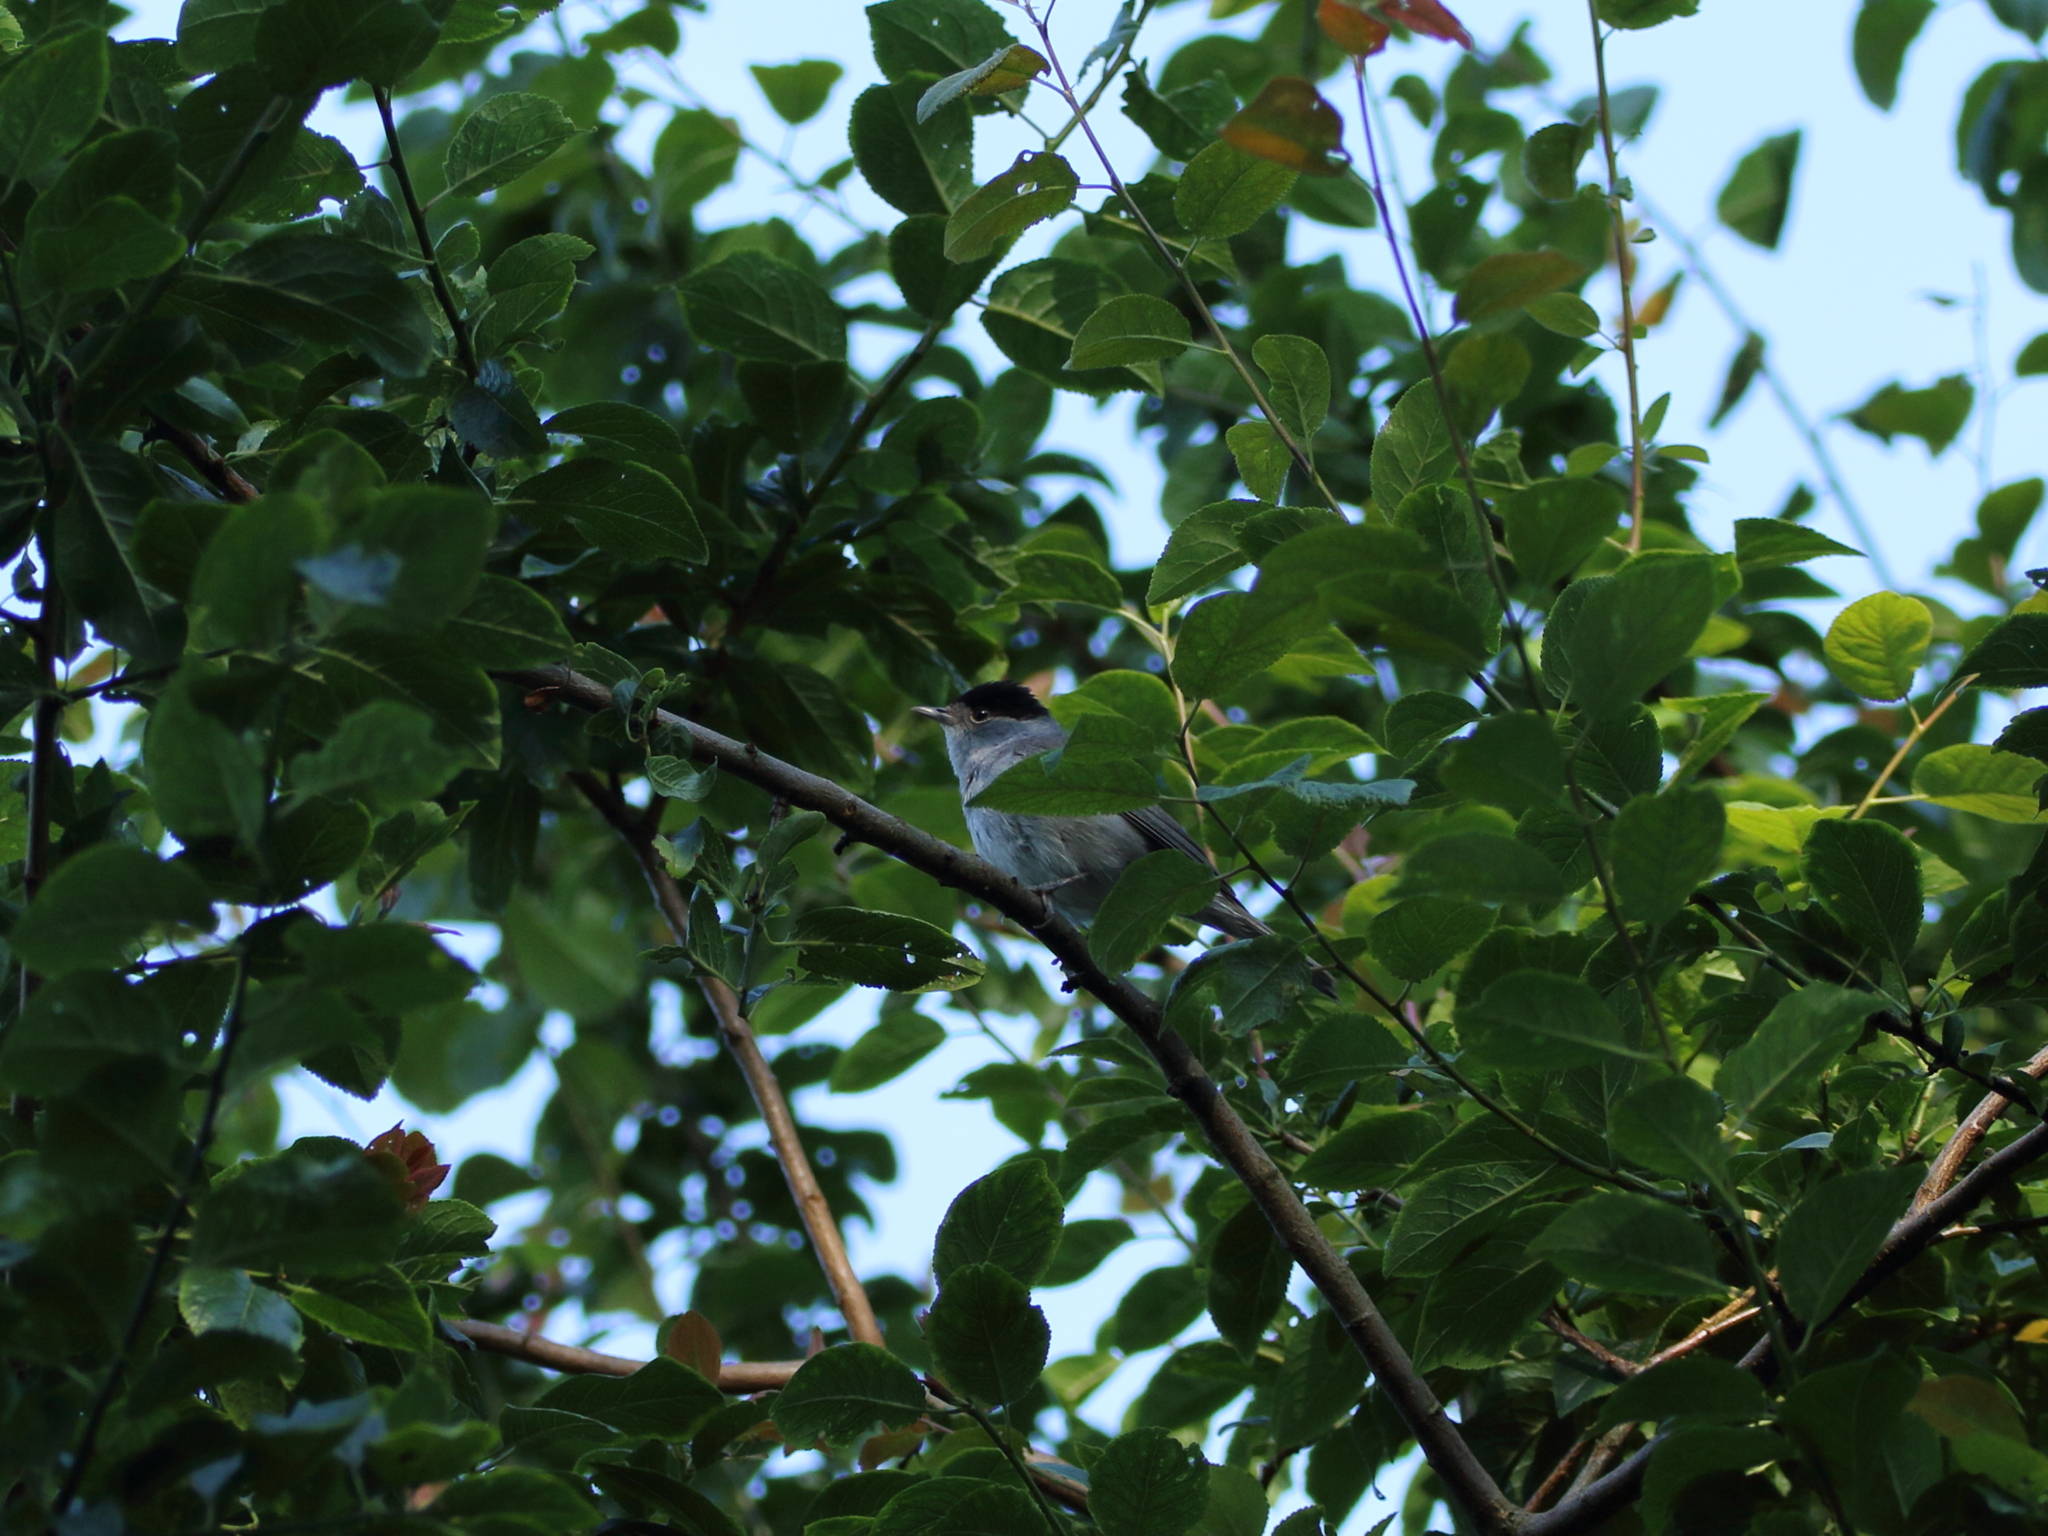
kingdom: Animalia
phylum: Chordata
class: Aves
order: Passeriformes
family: Sylviidae
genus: Sylvia
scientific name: Sylvia atricapilla
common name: Eurasian blackcap
